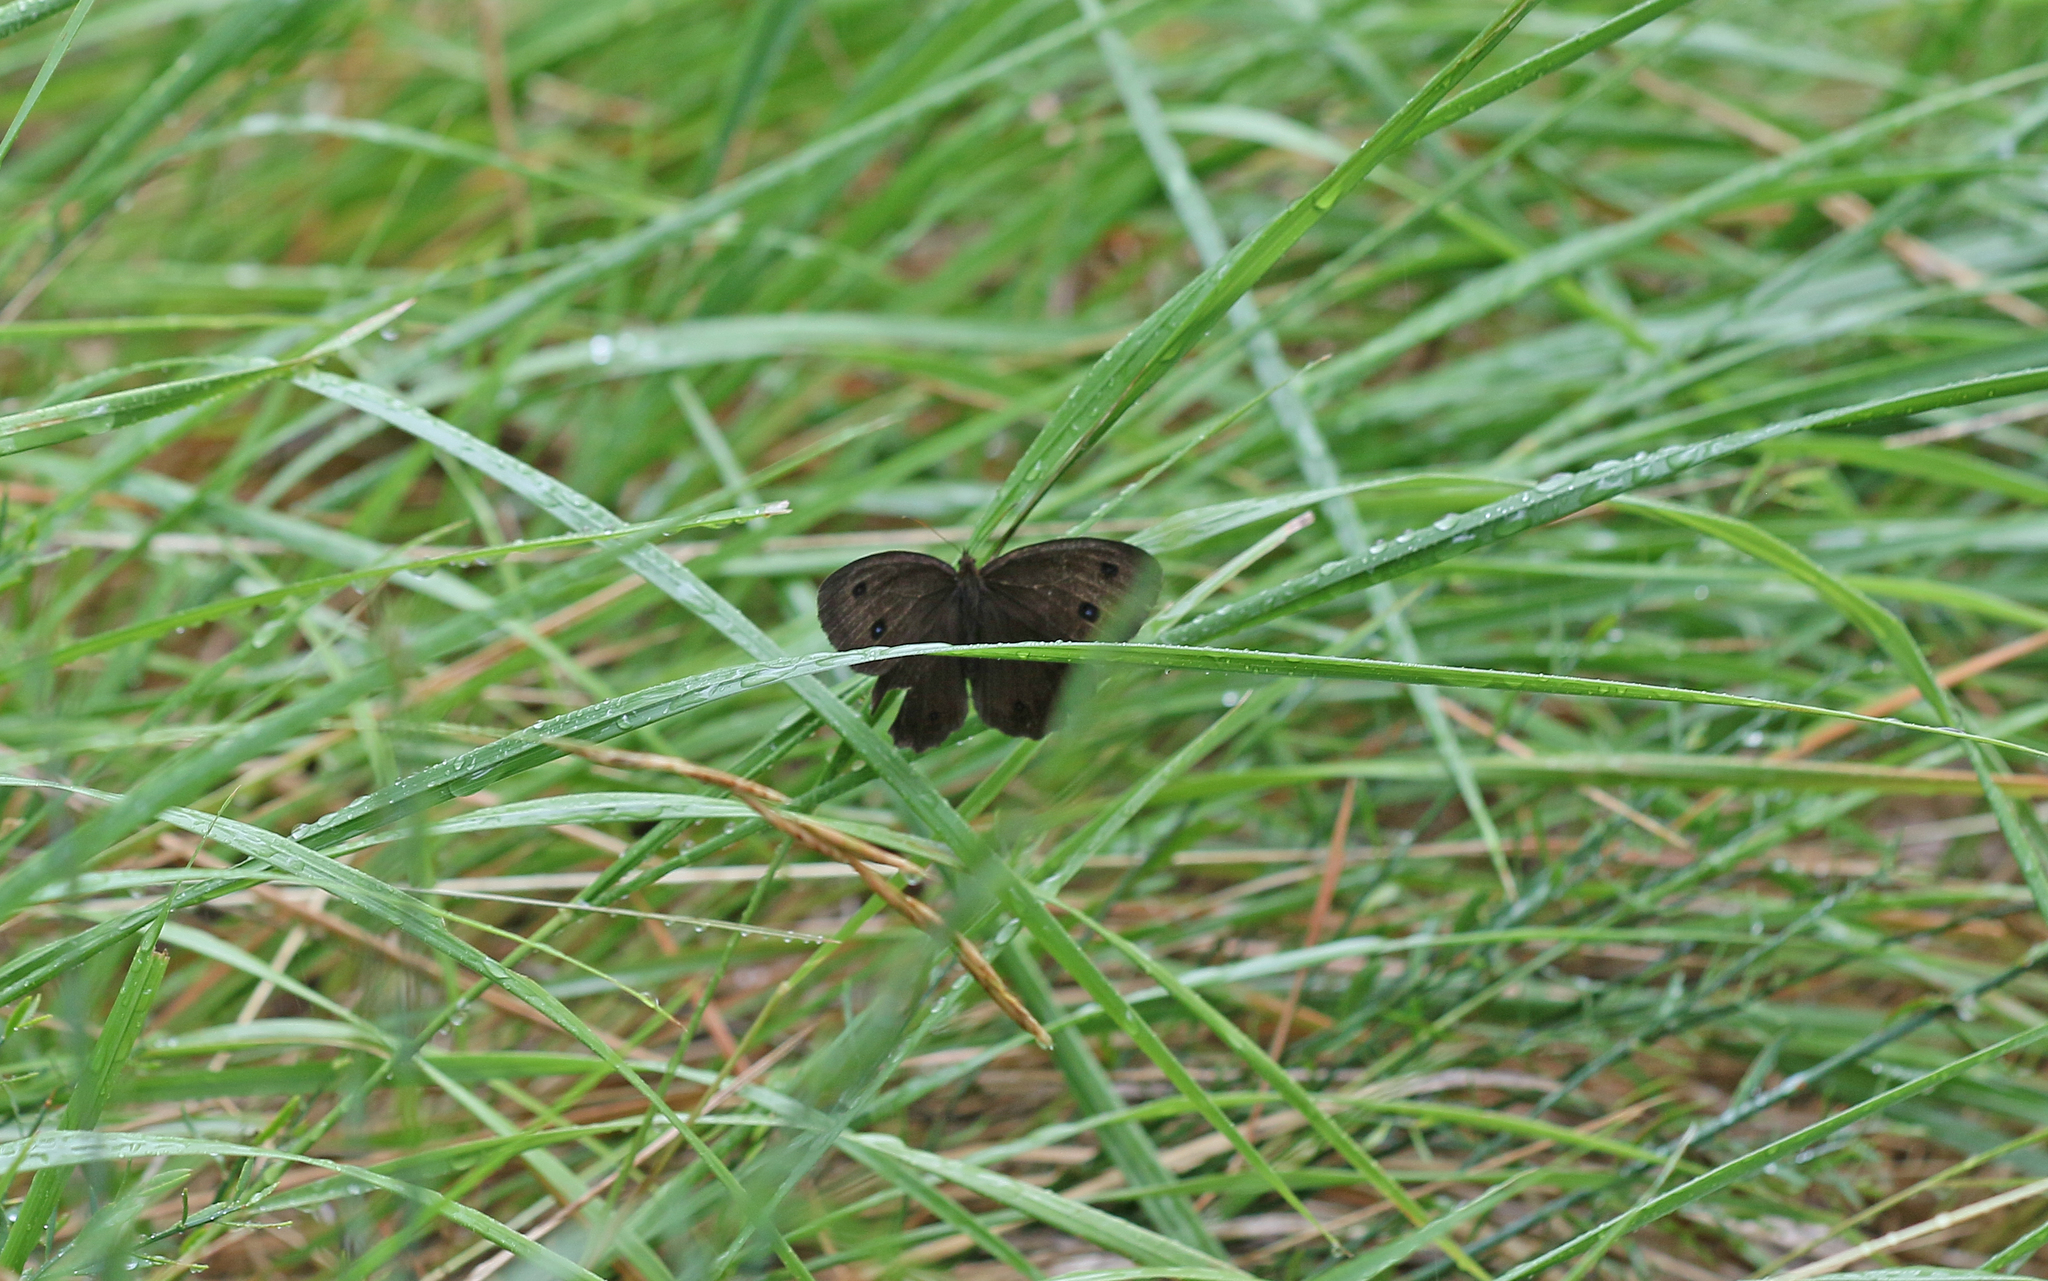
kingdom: Animalia
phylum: Arthropoda
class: Insecta
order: Lepidoptera
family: Nymphalidae
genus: Minois
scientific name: Minois dryas
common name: Dryad
